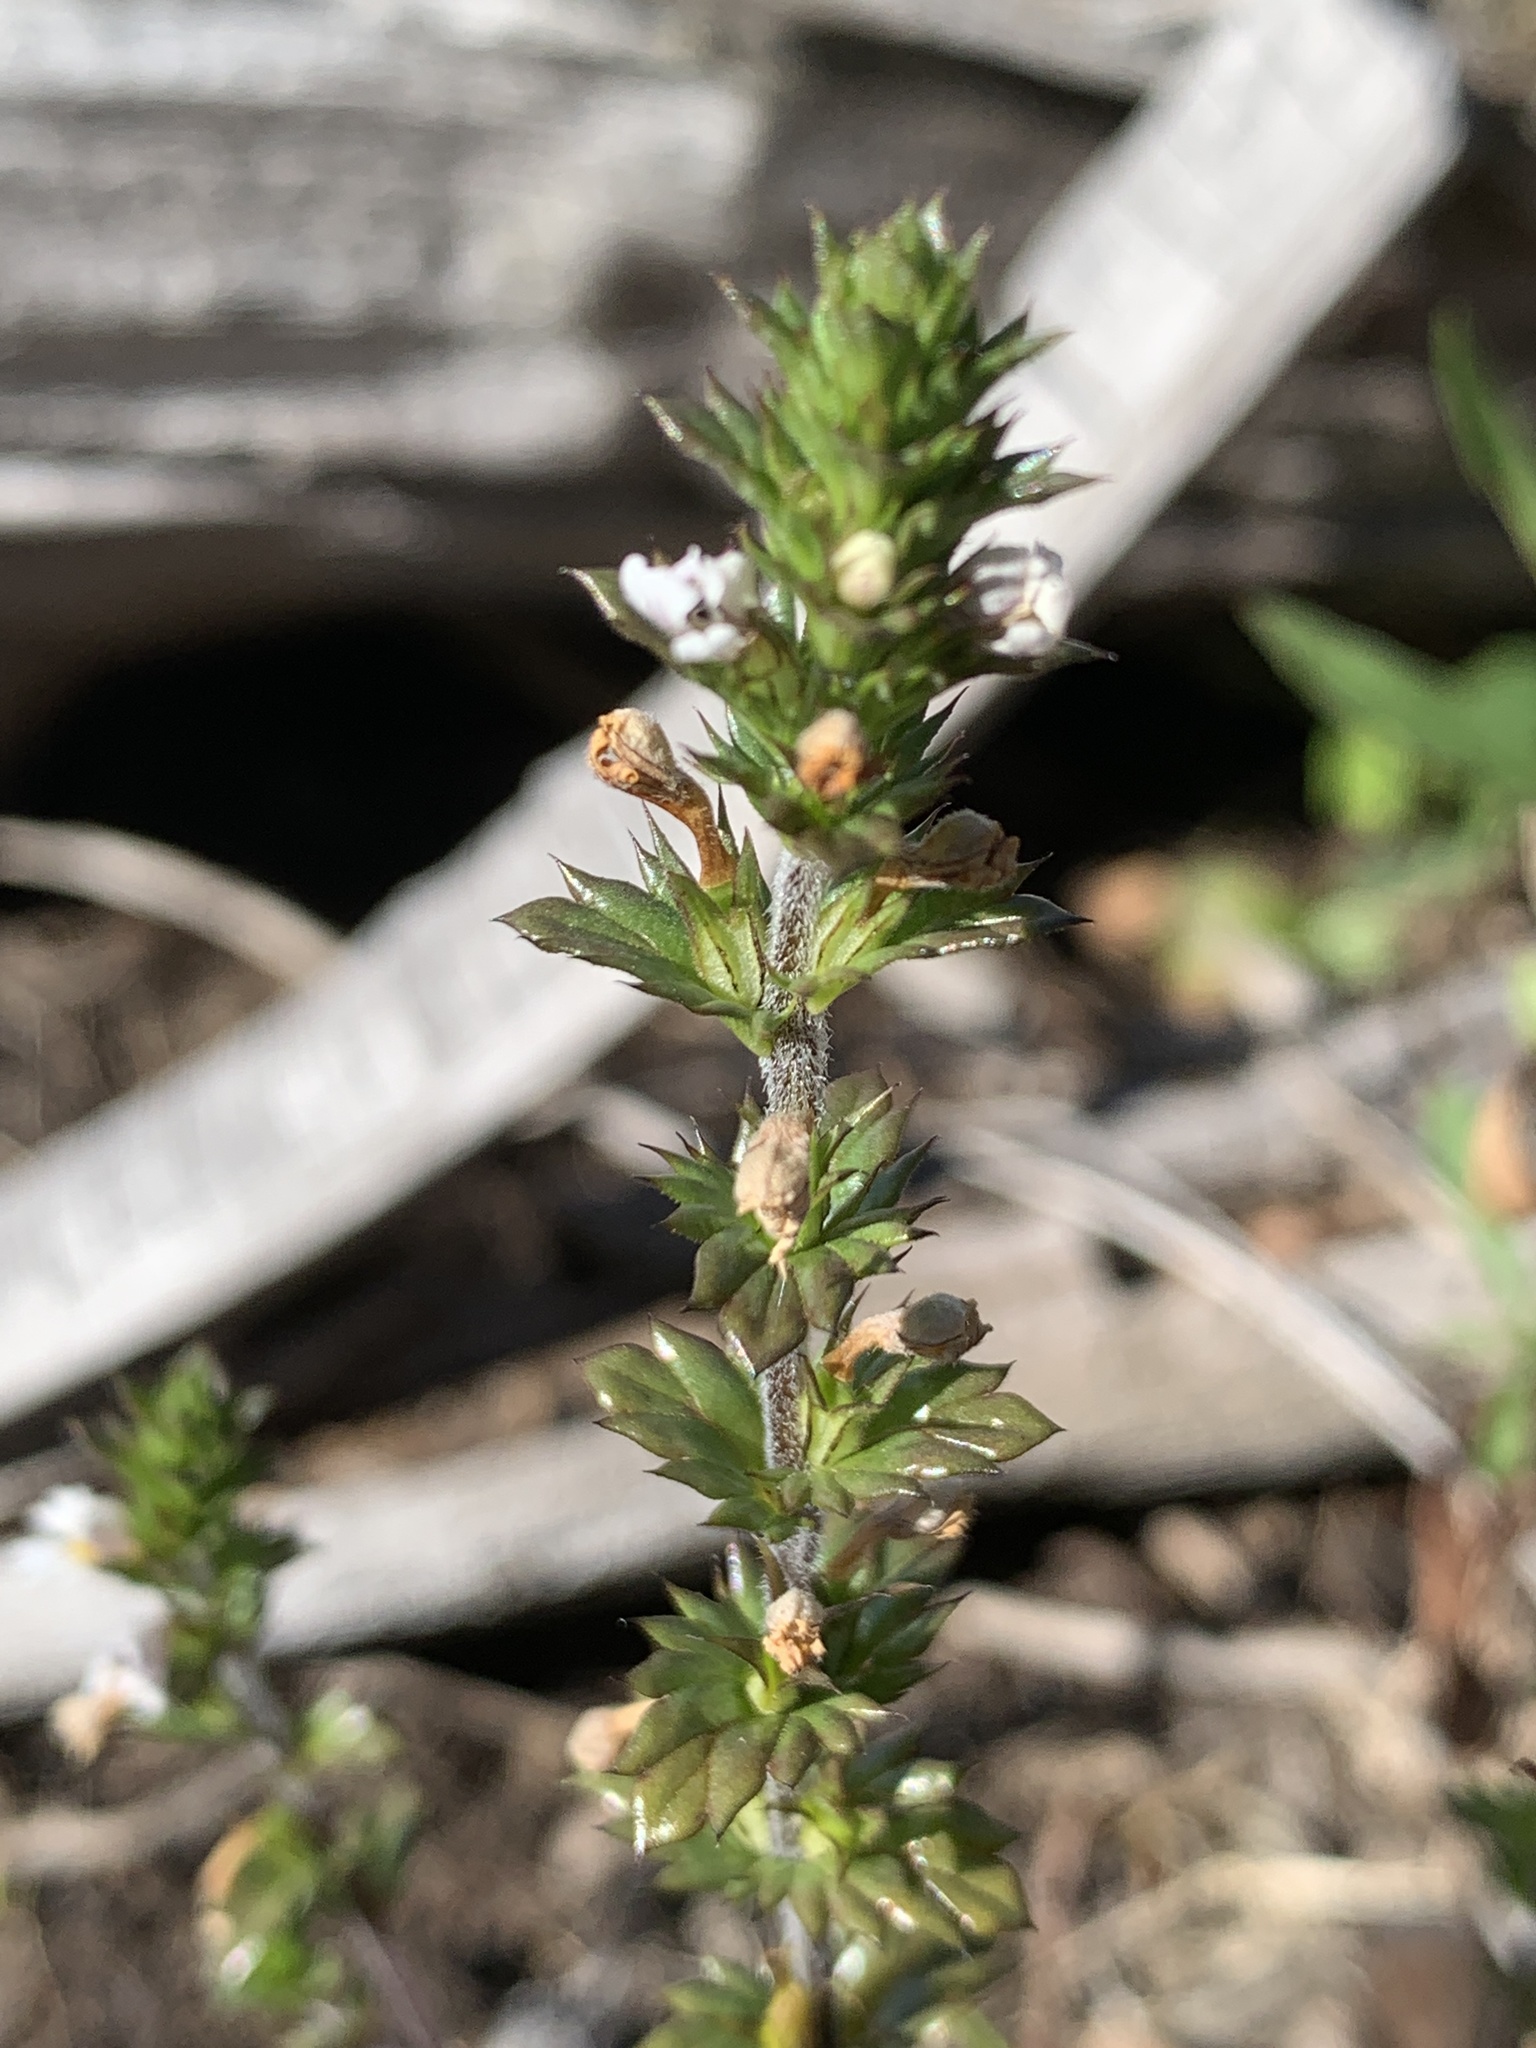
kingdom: Plantae
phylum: Tracheophyta
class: Magnoliopsida
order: Lamiales
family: Orobanchaceae
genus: Euphrasia
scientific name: Euphrasia nemorosa
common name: Common eyebright
